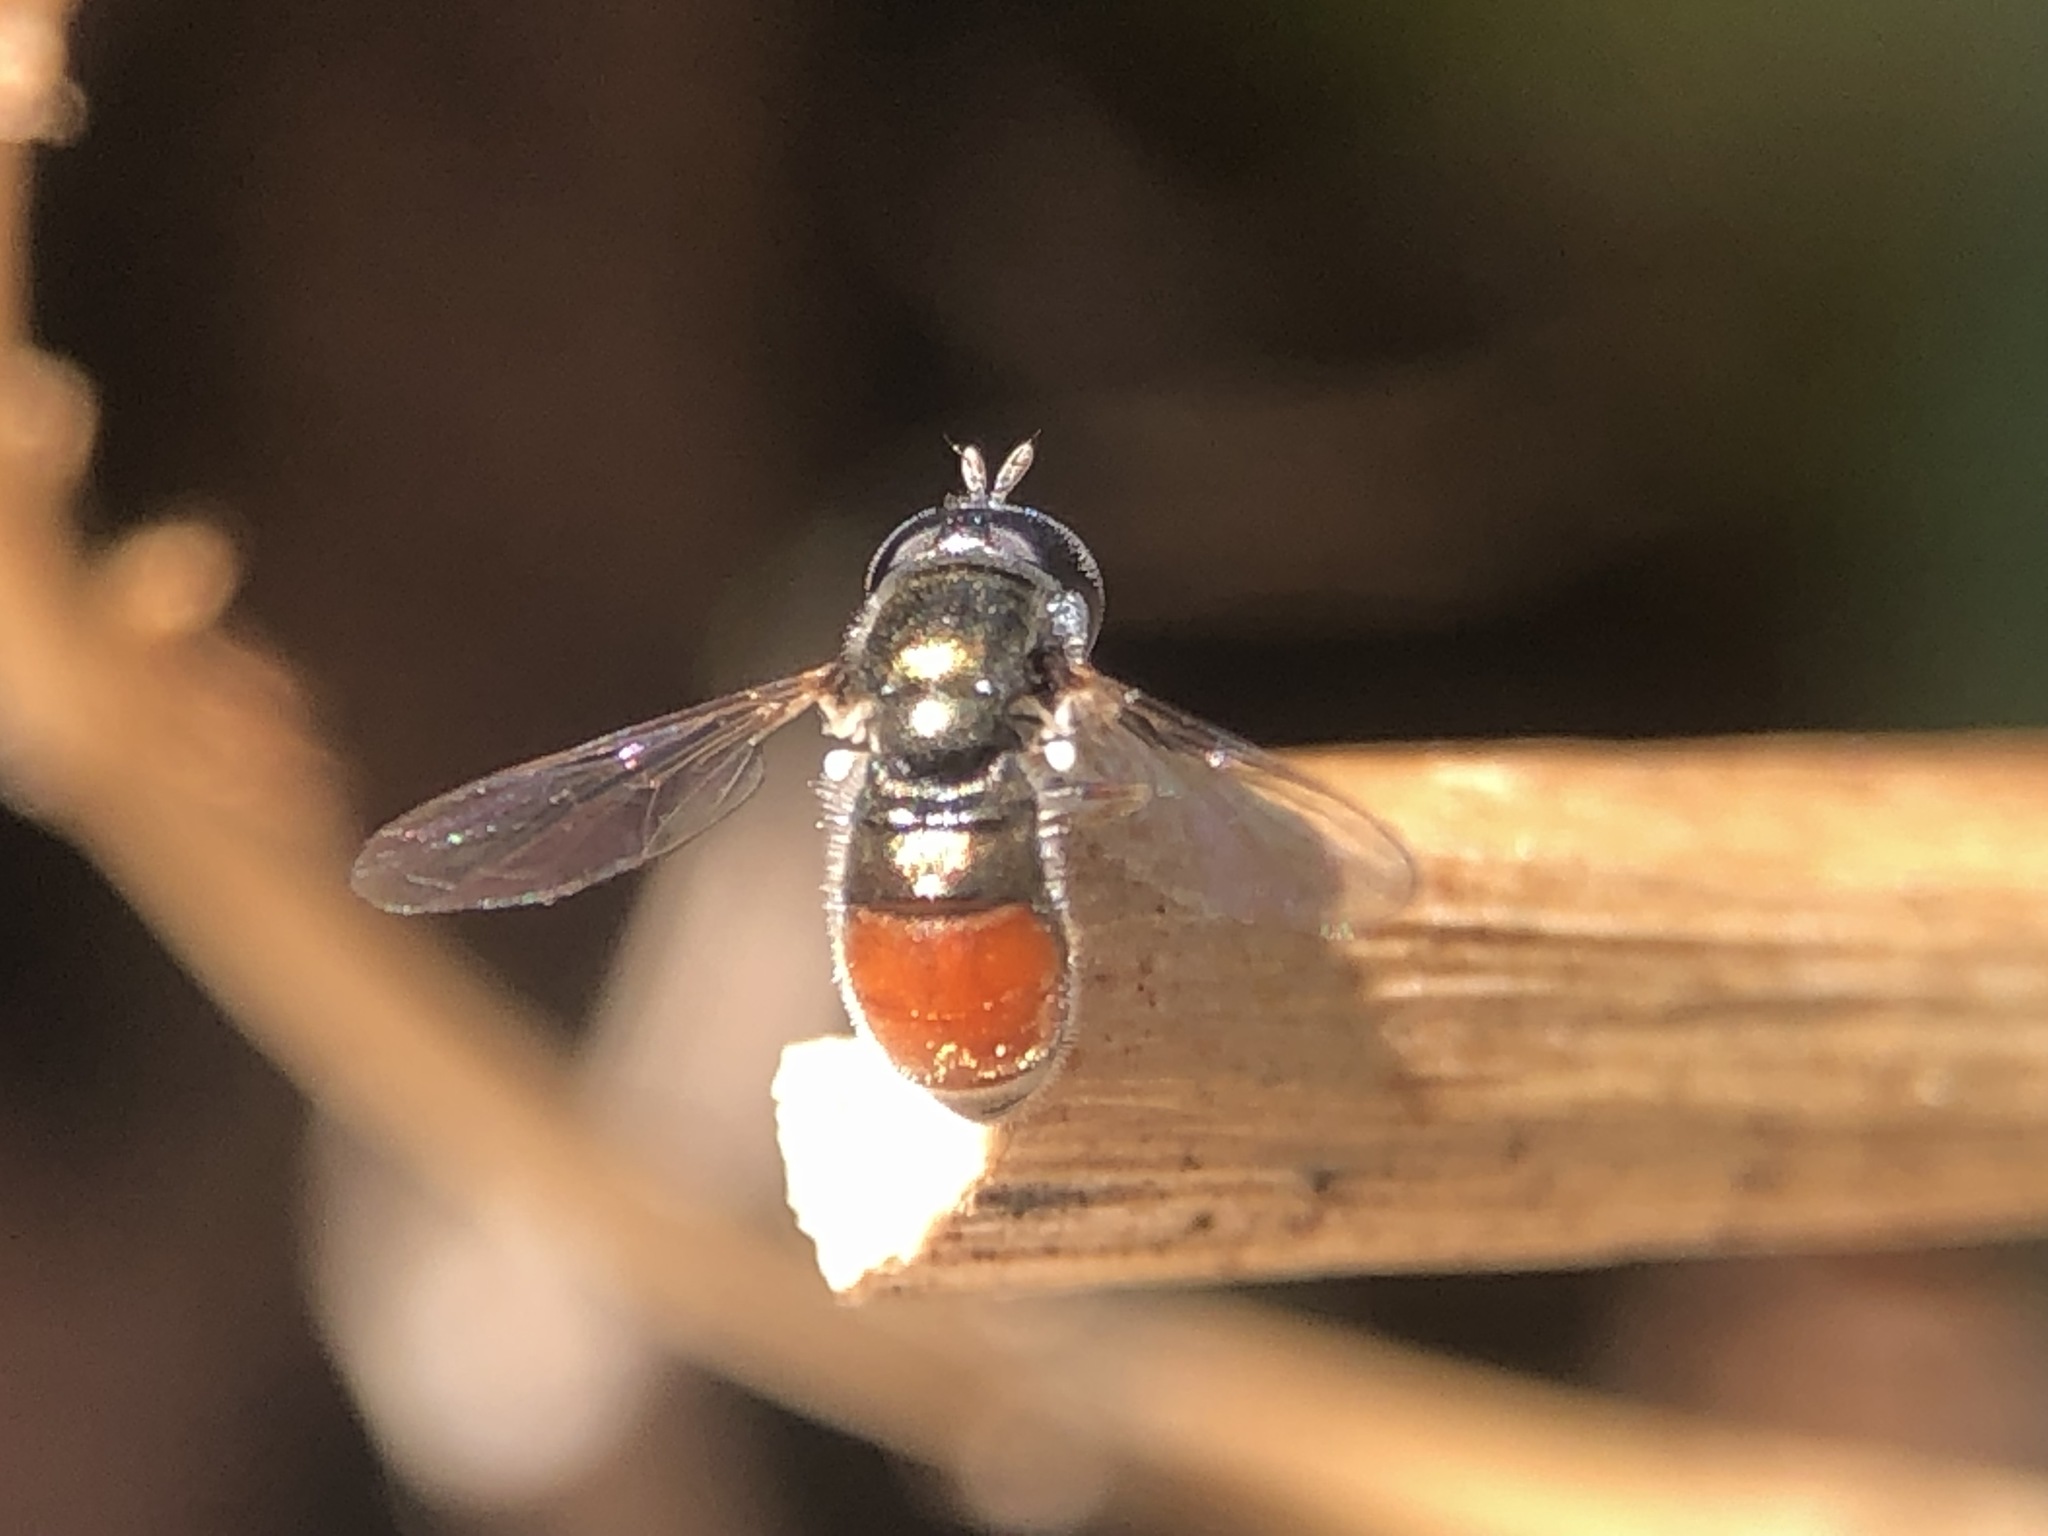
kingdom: Animalia
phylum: Arthropoda
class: Insecta
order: Diptera
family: Syrphidae
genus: Paragus
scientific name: Paragus haemorrhous
